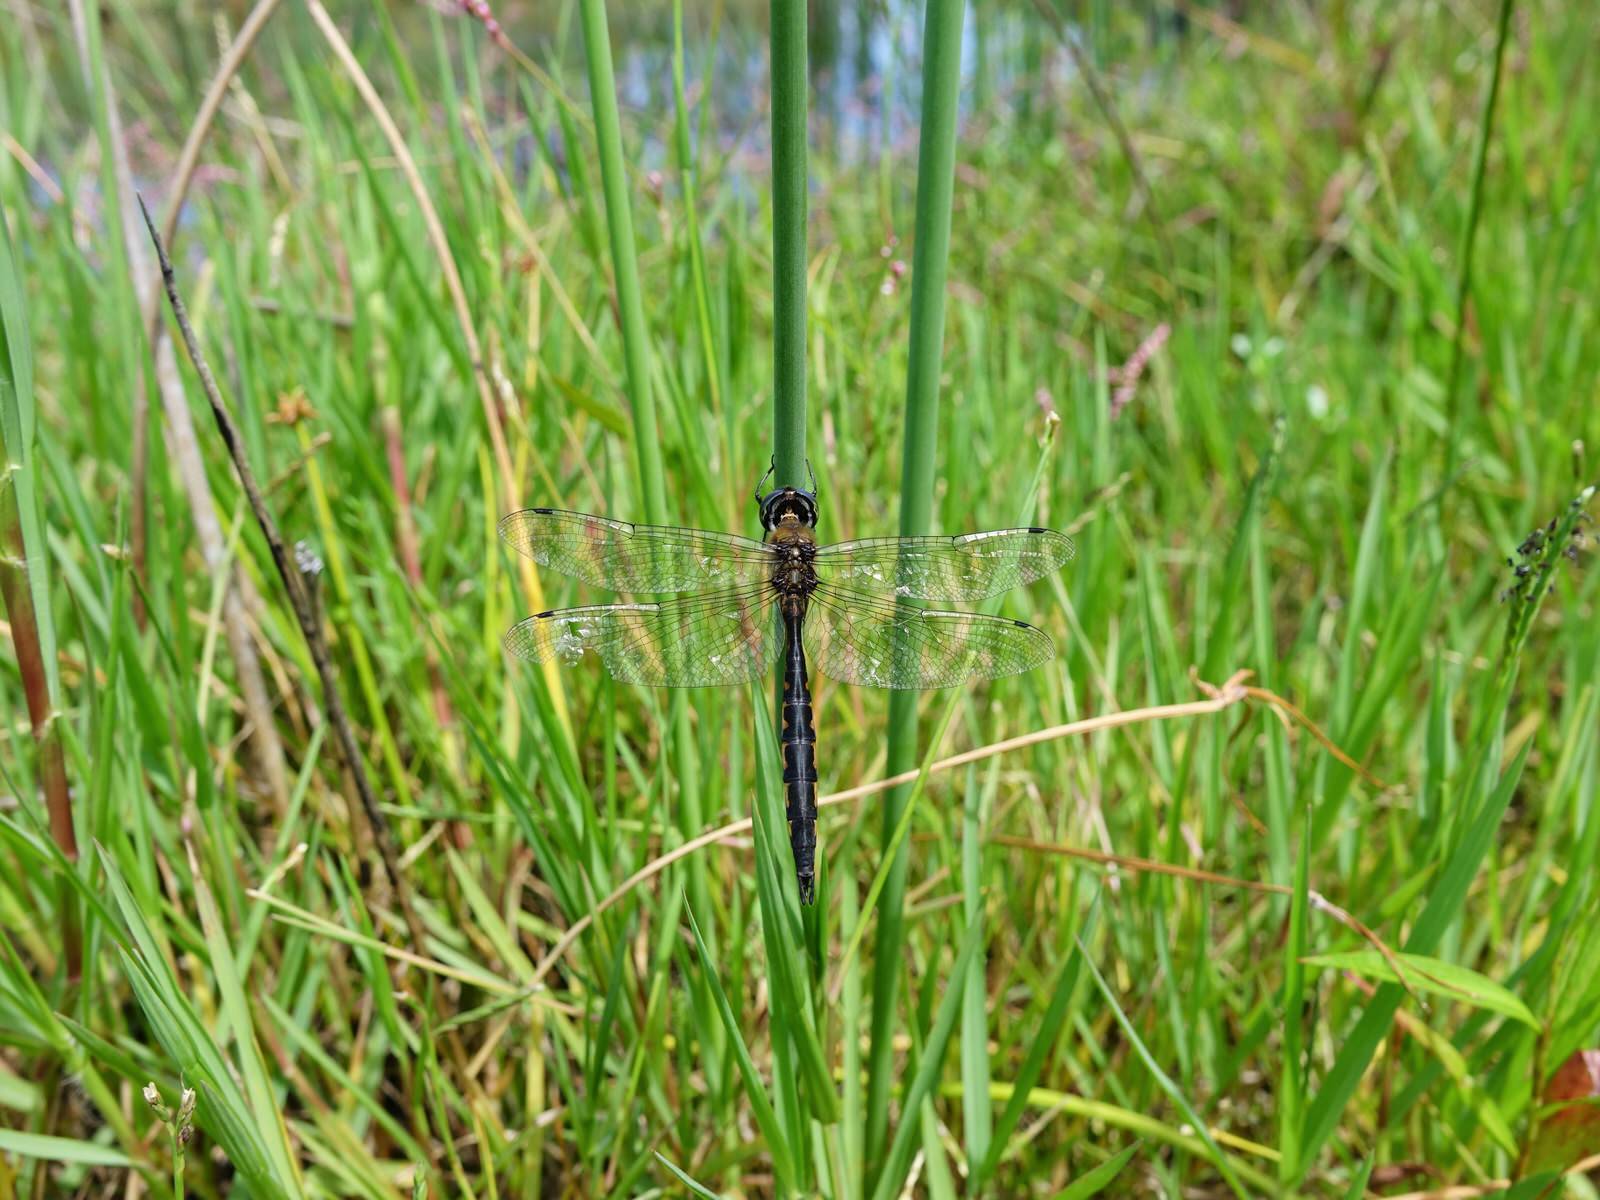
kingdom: Animalia
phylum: Arthropoda
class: Insecta
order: Odonata
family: Corduliidae
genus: Hemicordulia
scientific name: Hemicordulia australiae
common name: Sentry dragonfly
